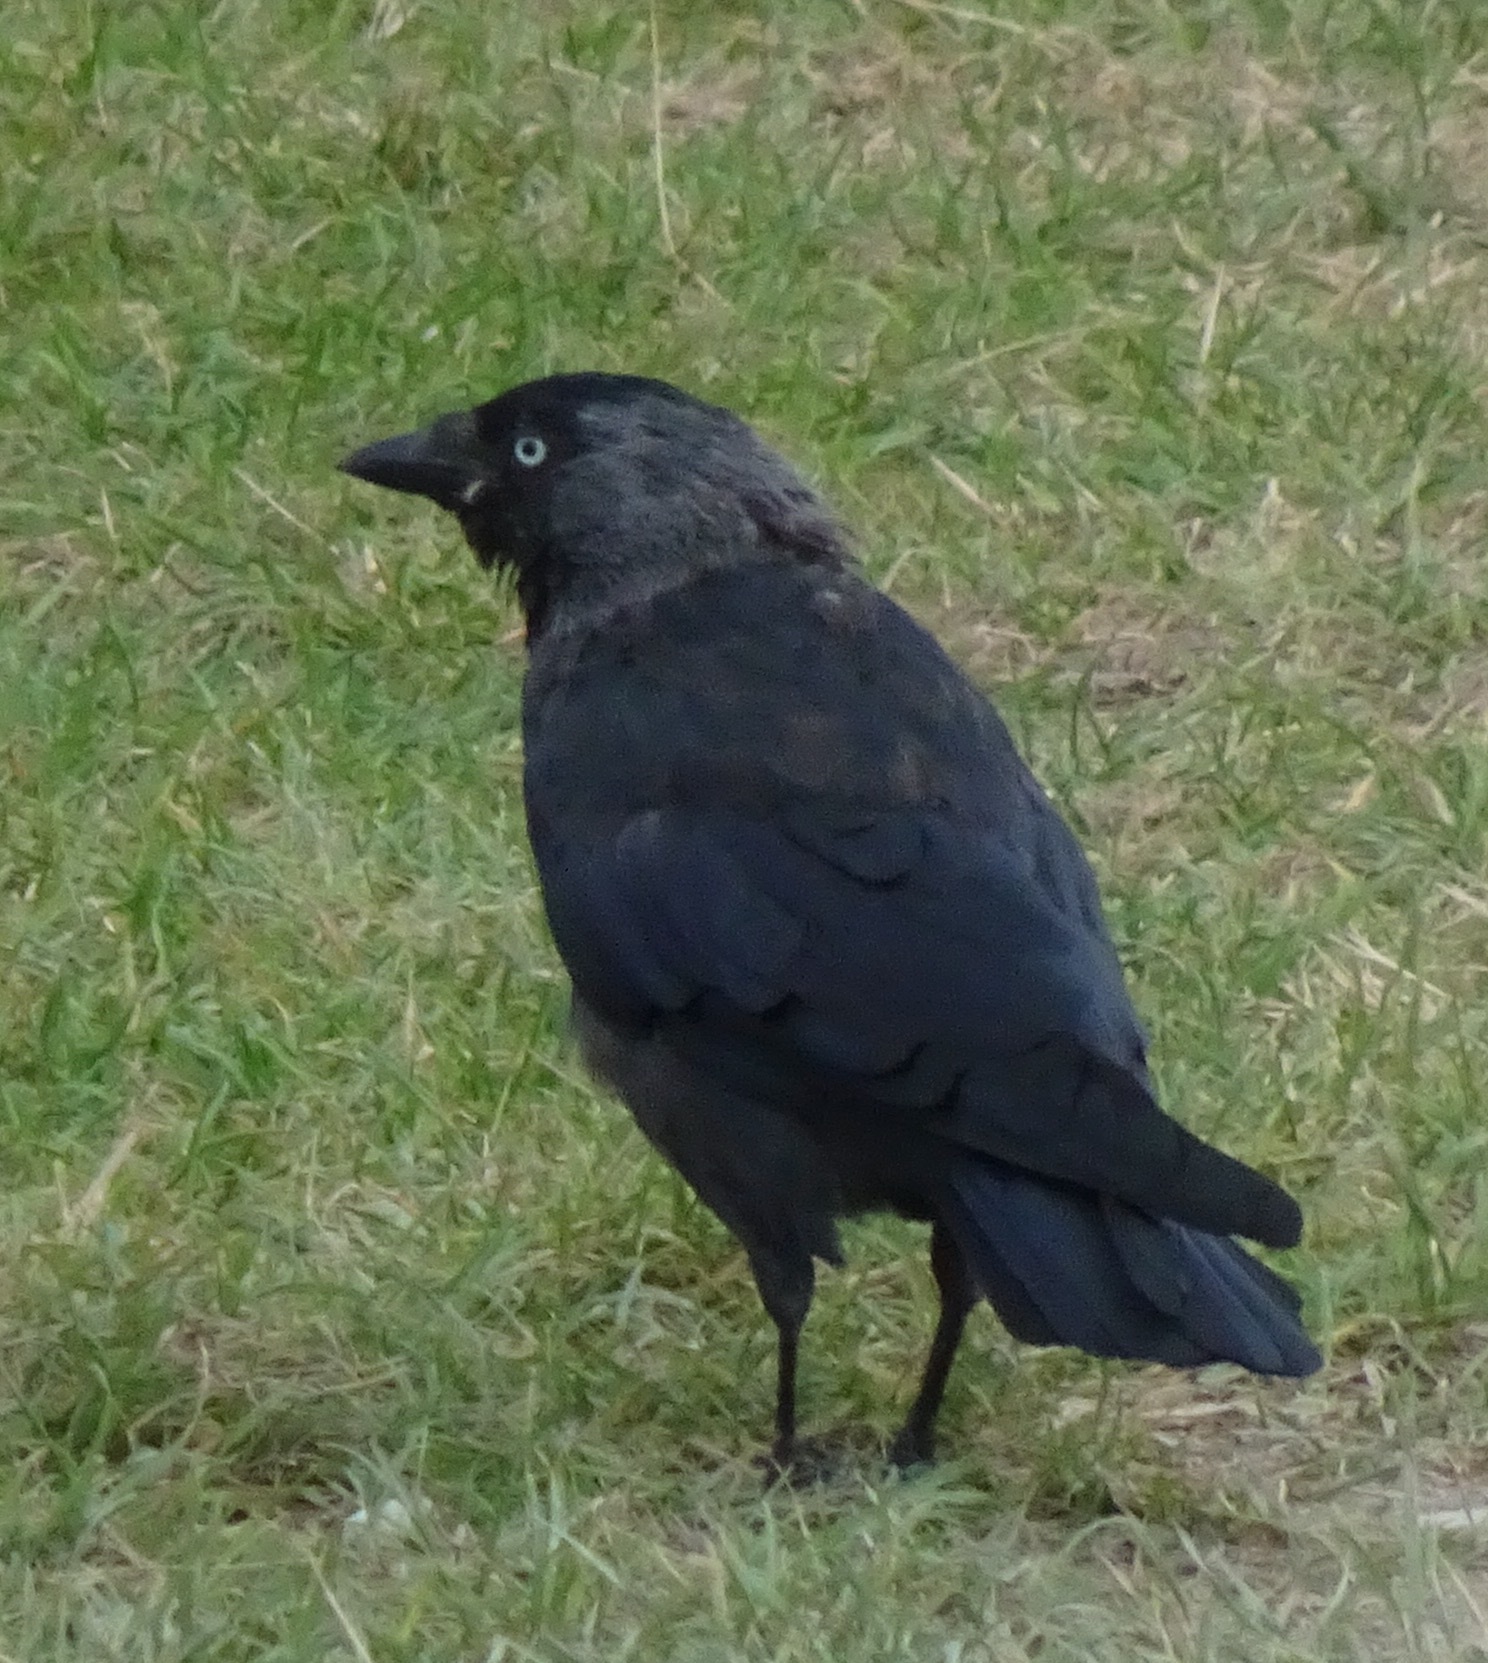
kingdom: Animalia
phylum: Chordata
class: Aves
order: Passeriformes
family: Corvidae
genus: Coloeus
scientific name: Coloeus monedula
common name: Western jackdaw
